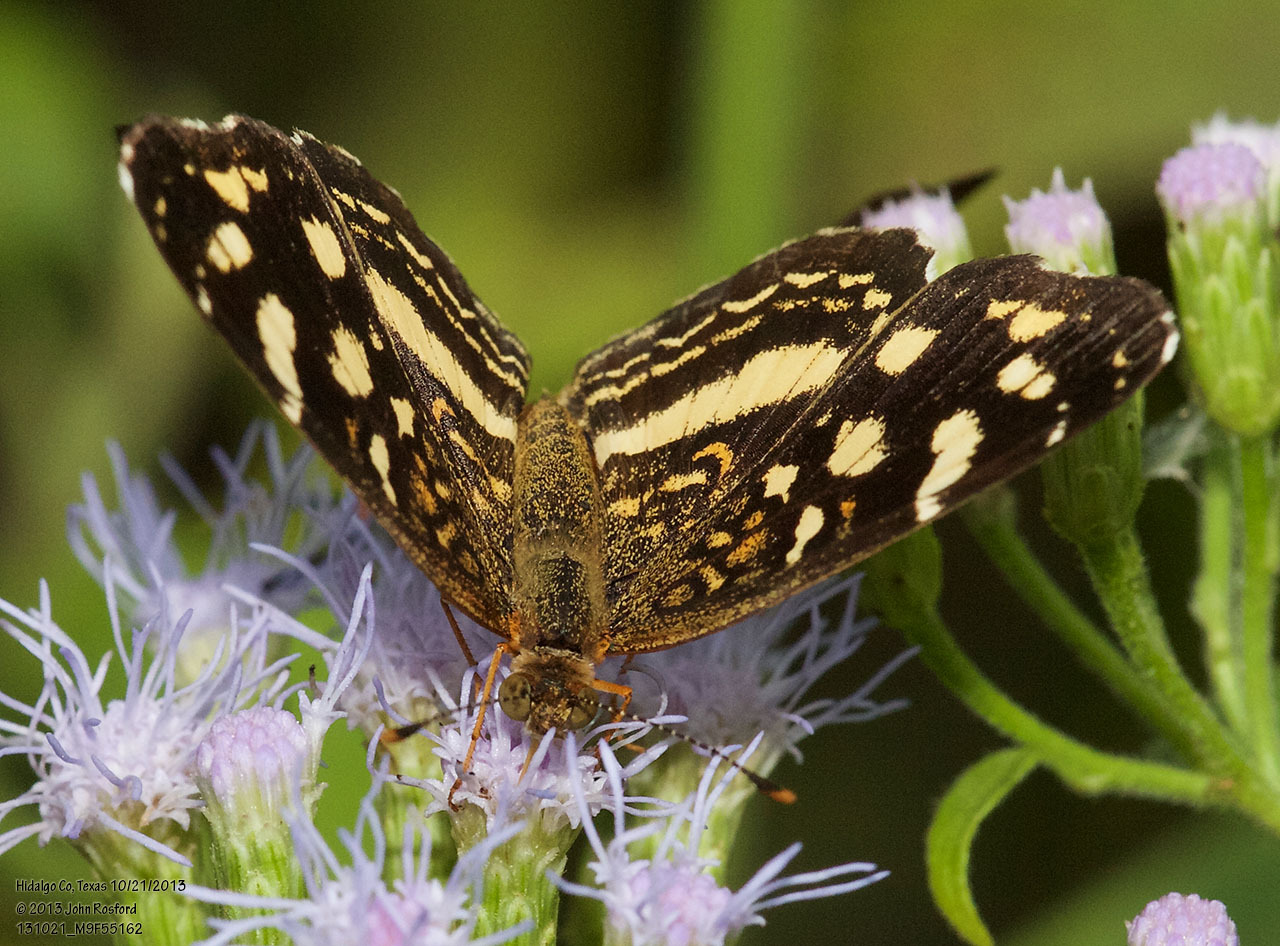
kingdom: Animalia
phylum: Arthropoda
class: Insecta
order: Lepidoptera
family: Nymphalidae
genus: Anthanassa
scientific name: Anthanassa tulcis
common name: Pale-banded crescent
